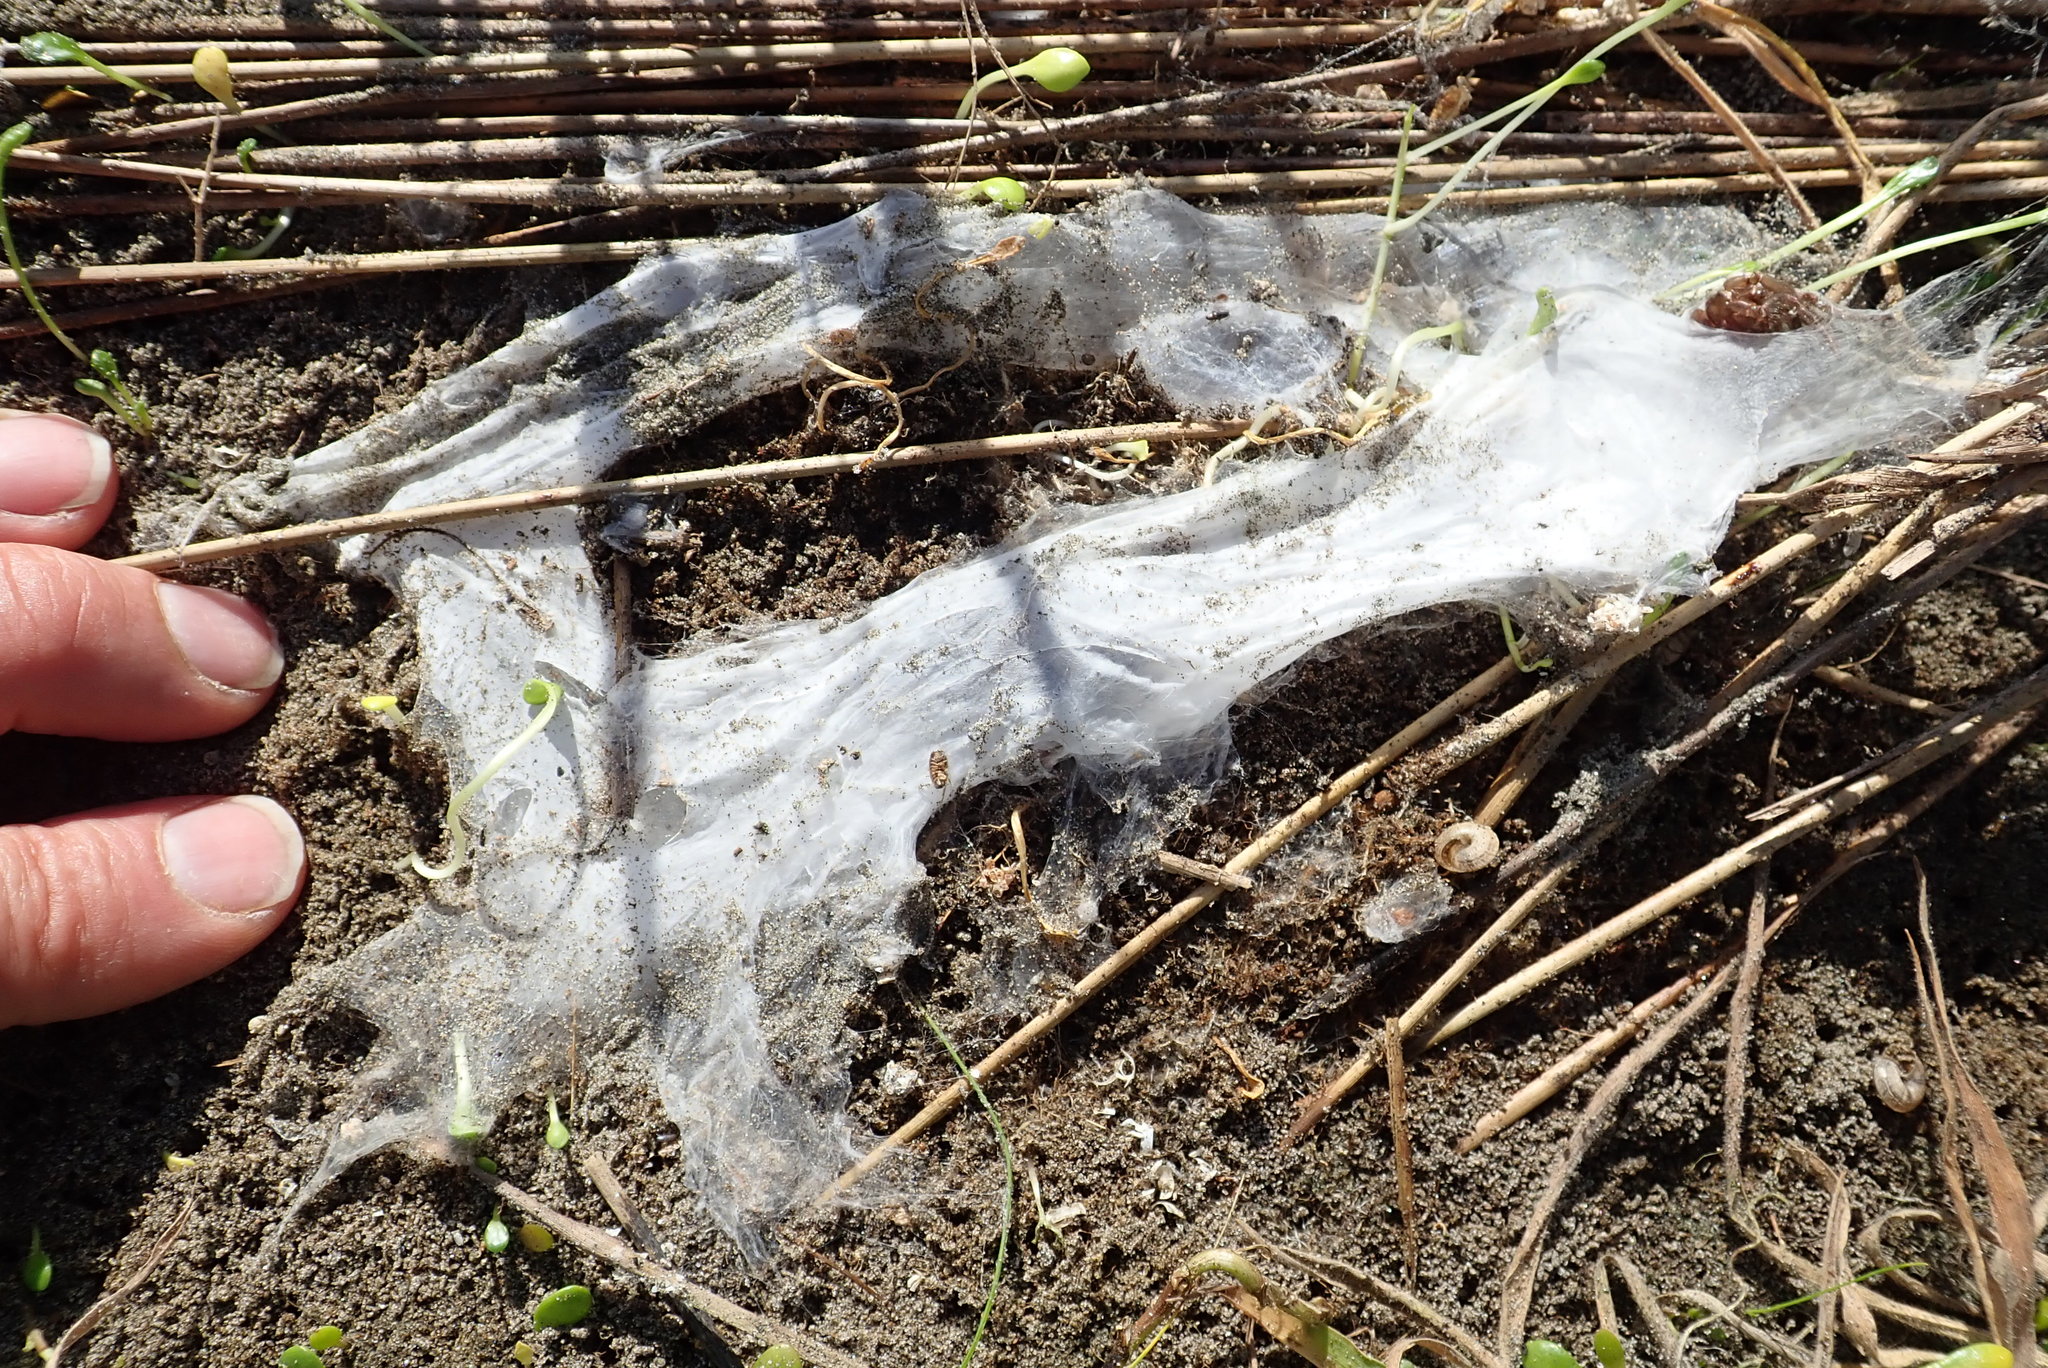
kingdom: Animalia
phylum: Arthropoda
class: Arachnida
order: Araneae
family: Porrhothelidae
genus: Porrhothele
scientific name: Porrhothele antipodiana
